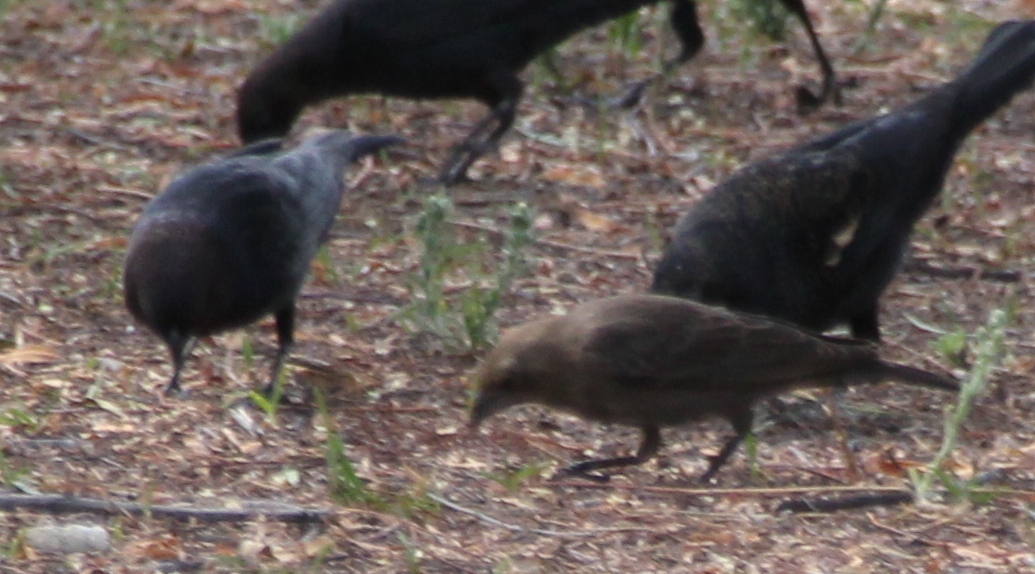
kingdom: Animalia
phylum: Chordata
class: Aves
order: Passeriformes
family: Icteridae
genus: Molothrus
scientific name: Molothrus ater
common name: Brown-headed cowbird
